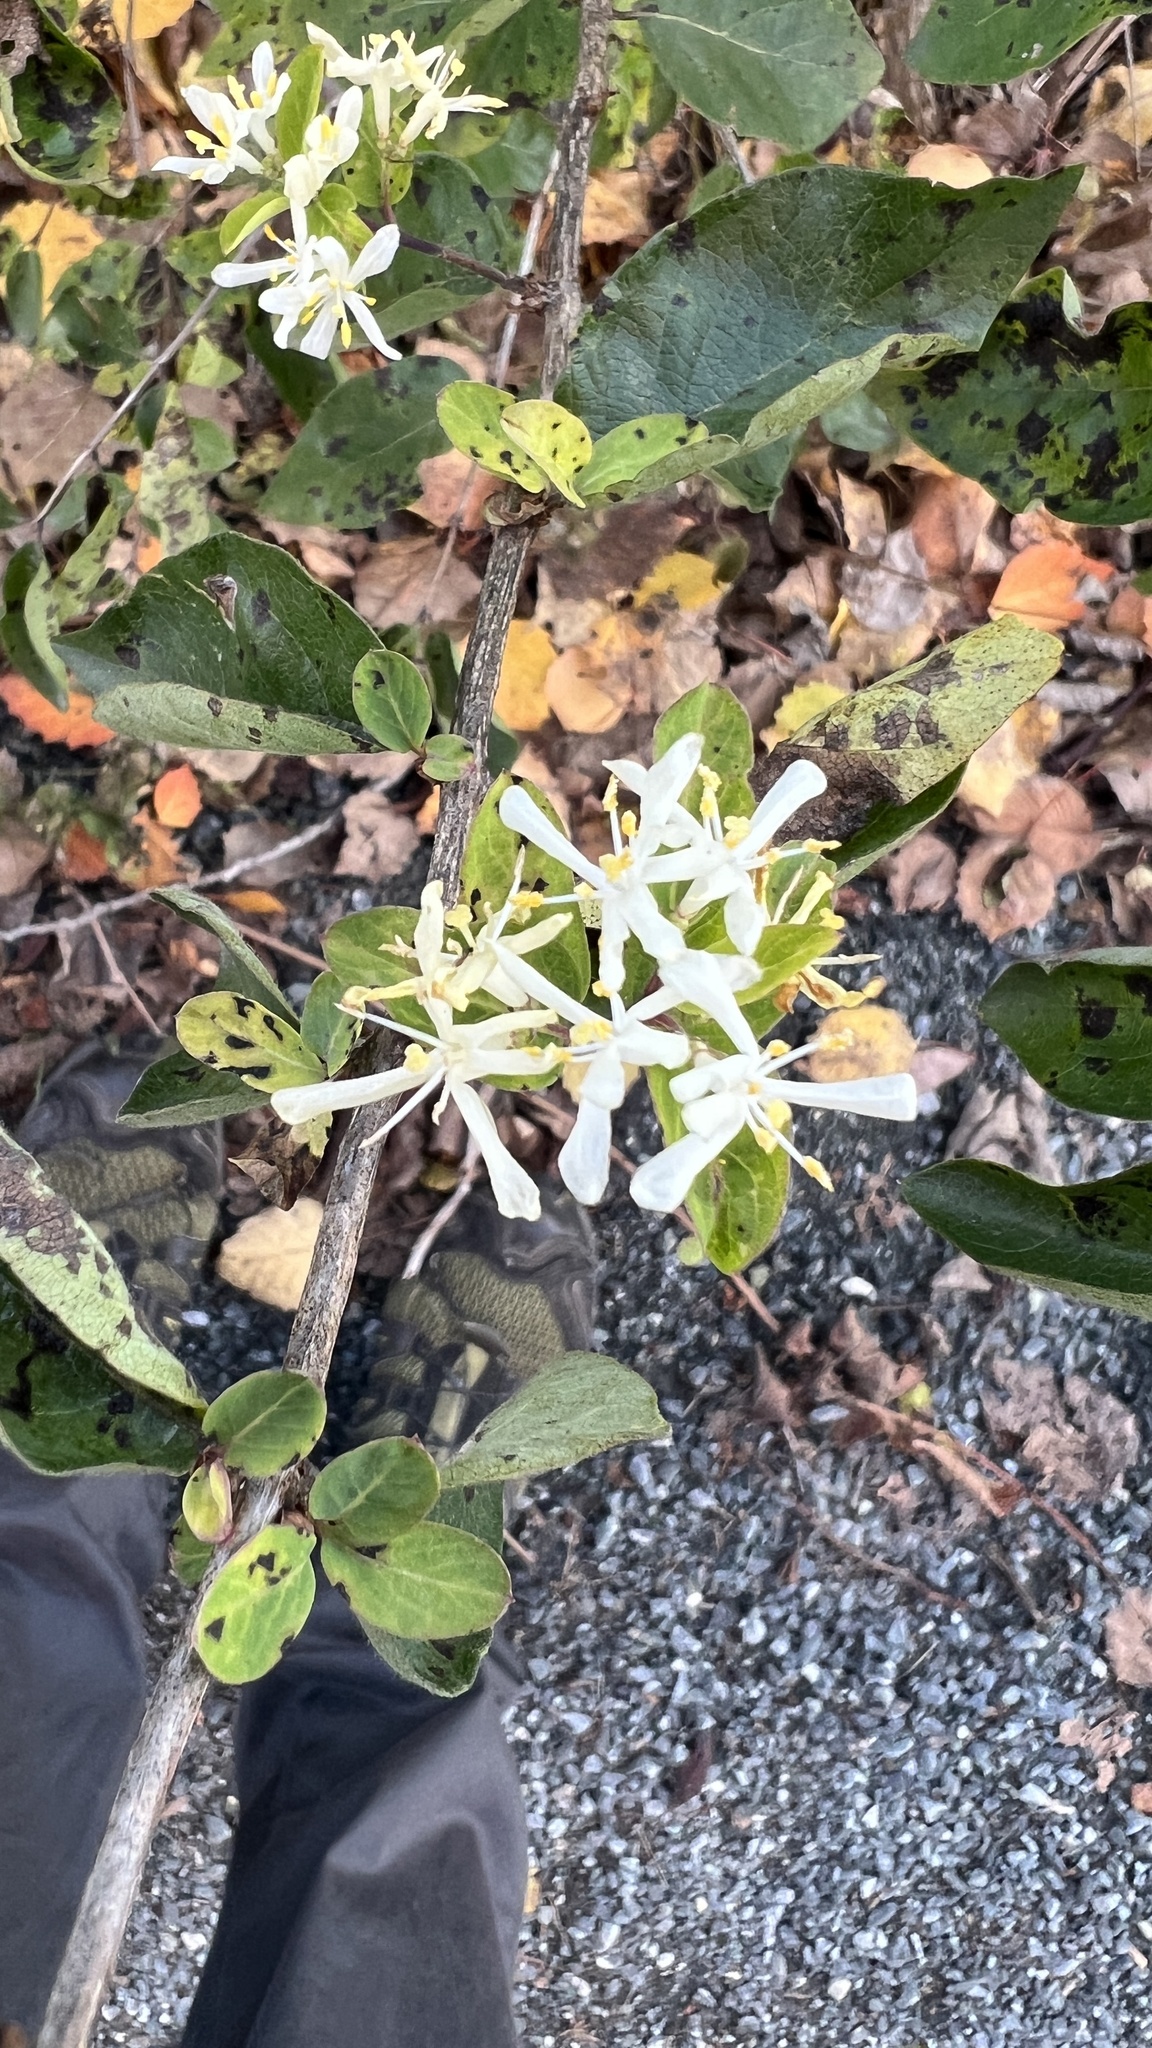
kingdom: Plantae
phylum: Tracheophyta
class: Magnoliopsida
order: Dipsacales
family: Caprifoliaceae
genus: Lonicera
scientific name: Lonicera morrowii
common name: Morrow's honeysuckle
